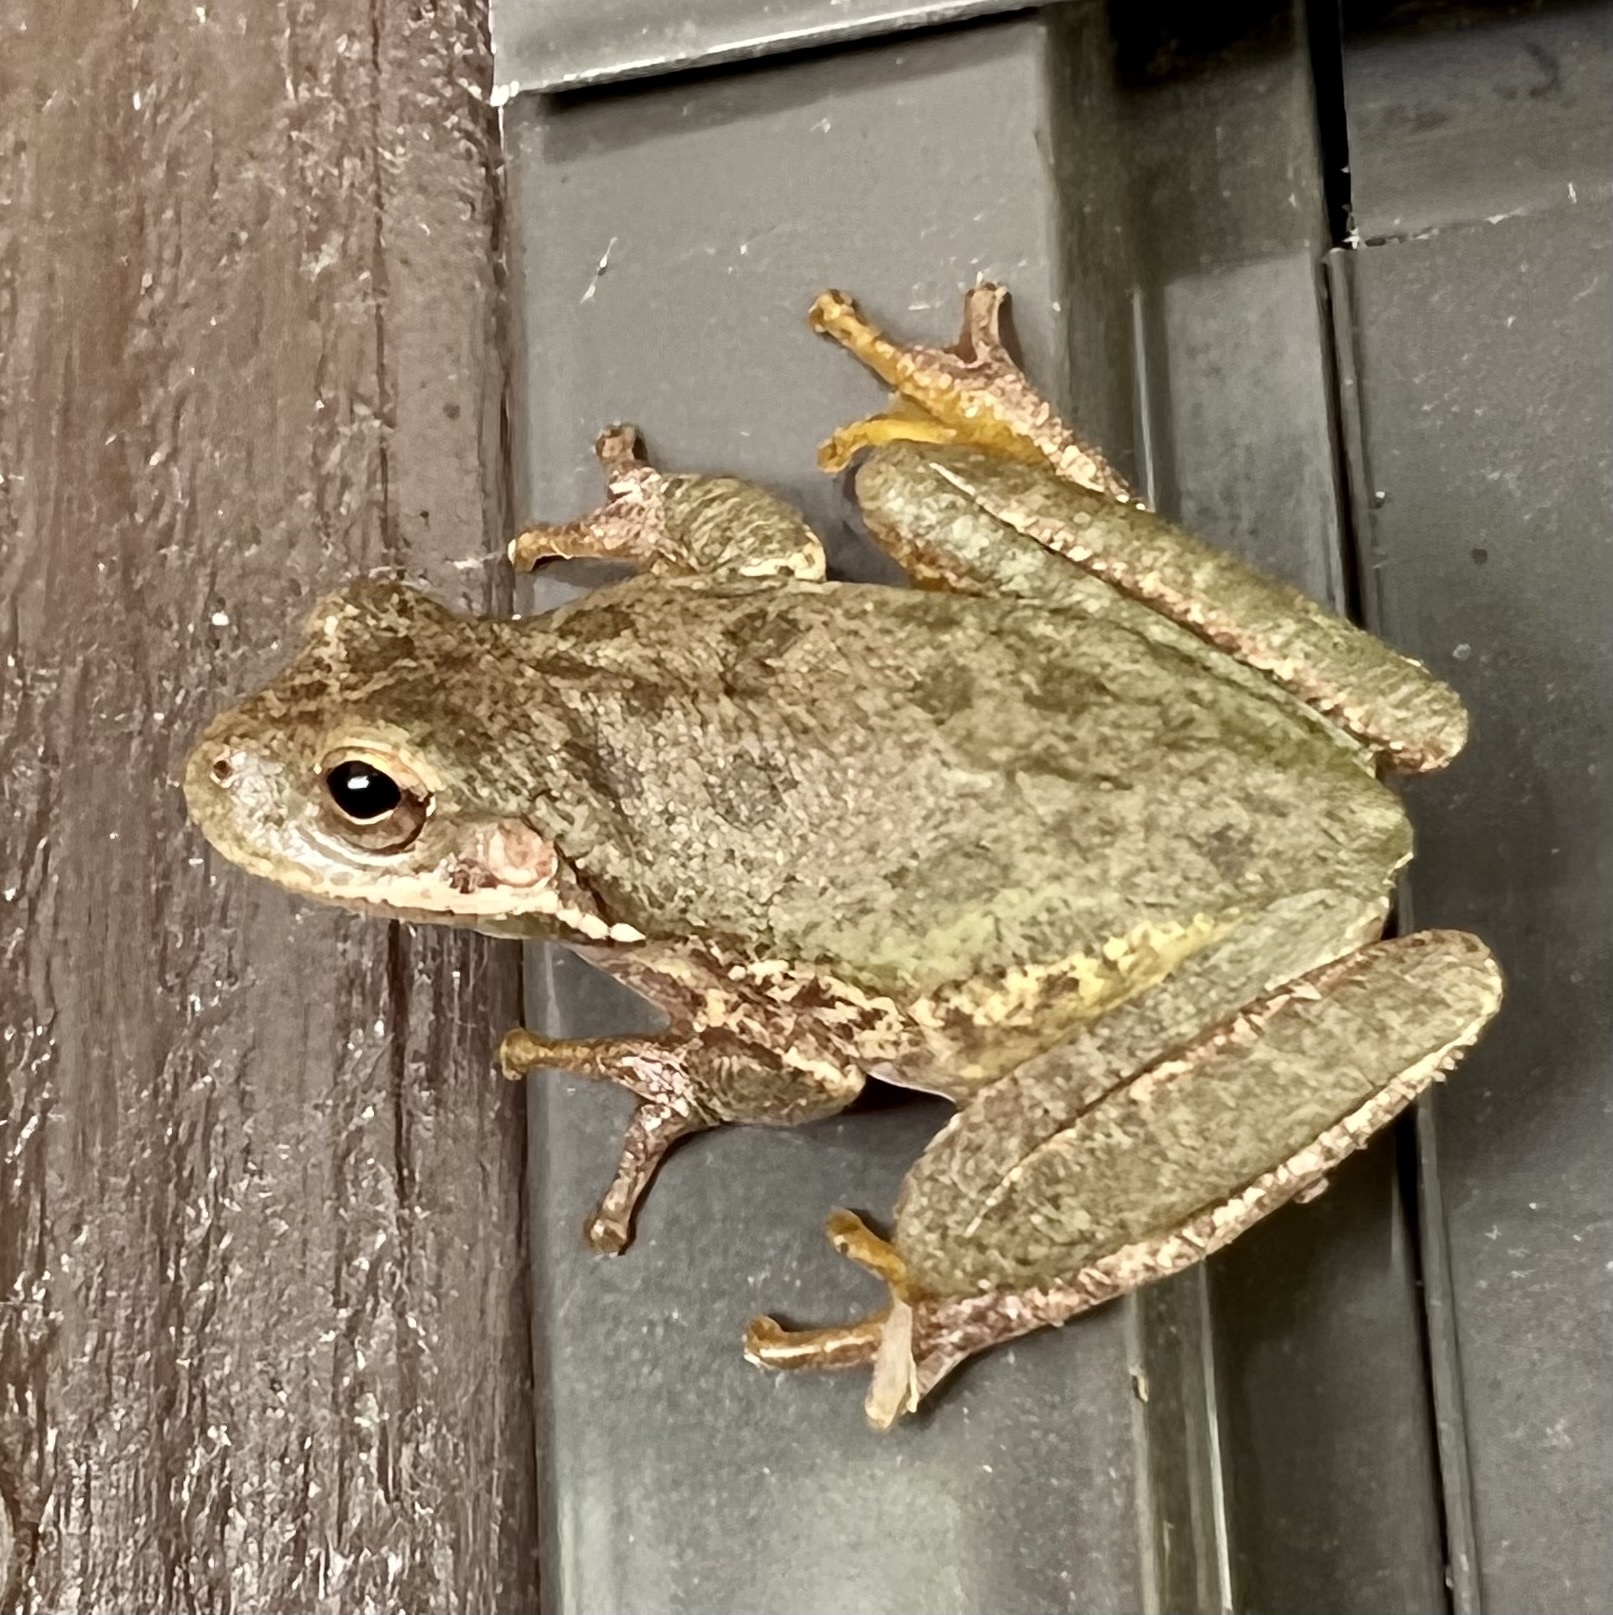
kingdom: Animalia
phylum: Chordata
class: Amphibia
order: Anura
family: Hylidae
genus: Dryophytes
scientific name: Dryophytes squirellus
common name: Squirrel treefrog
